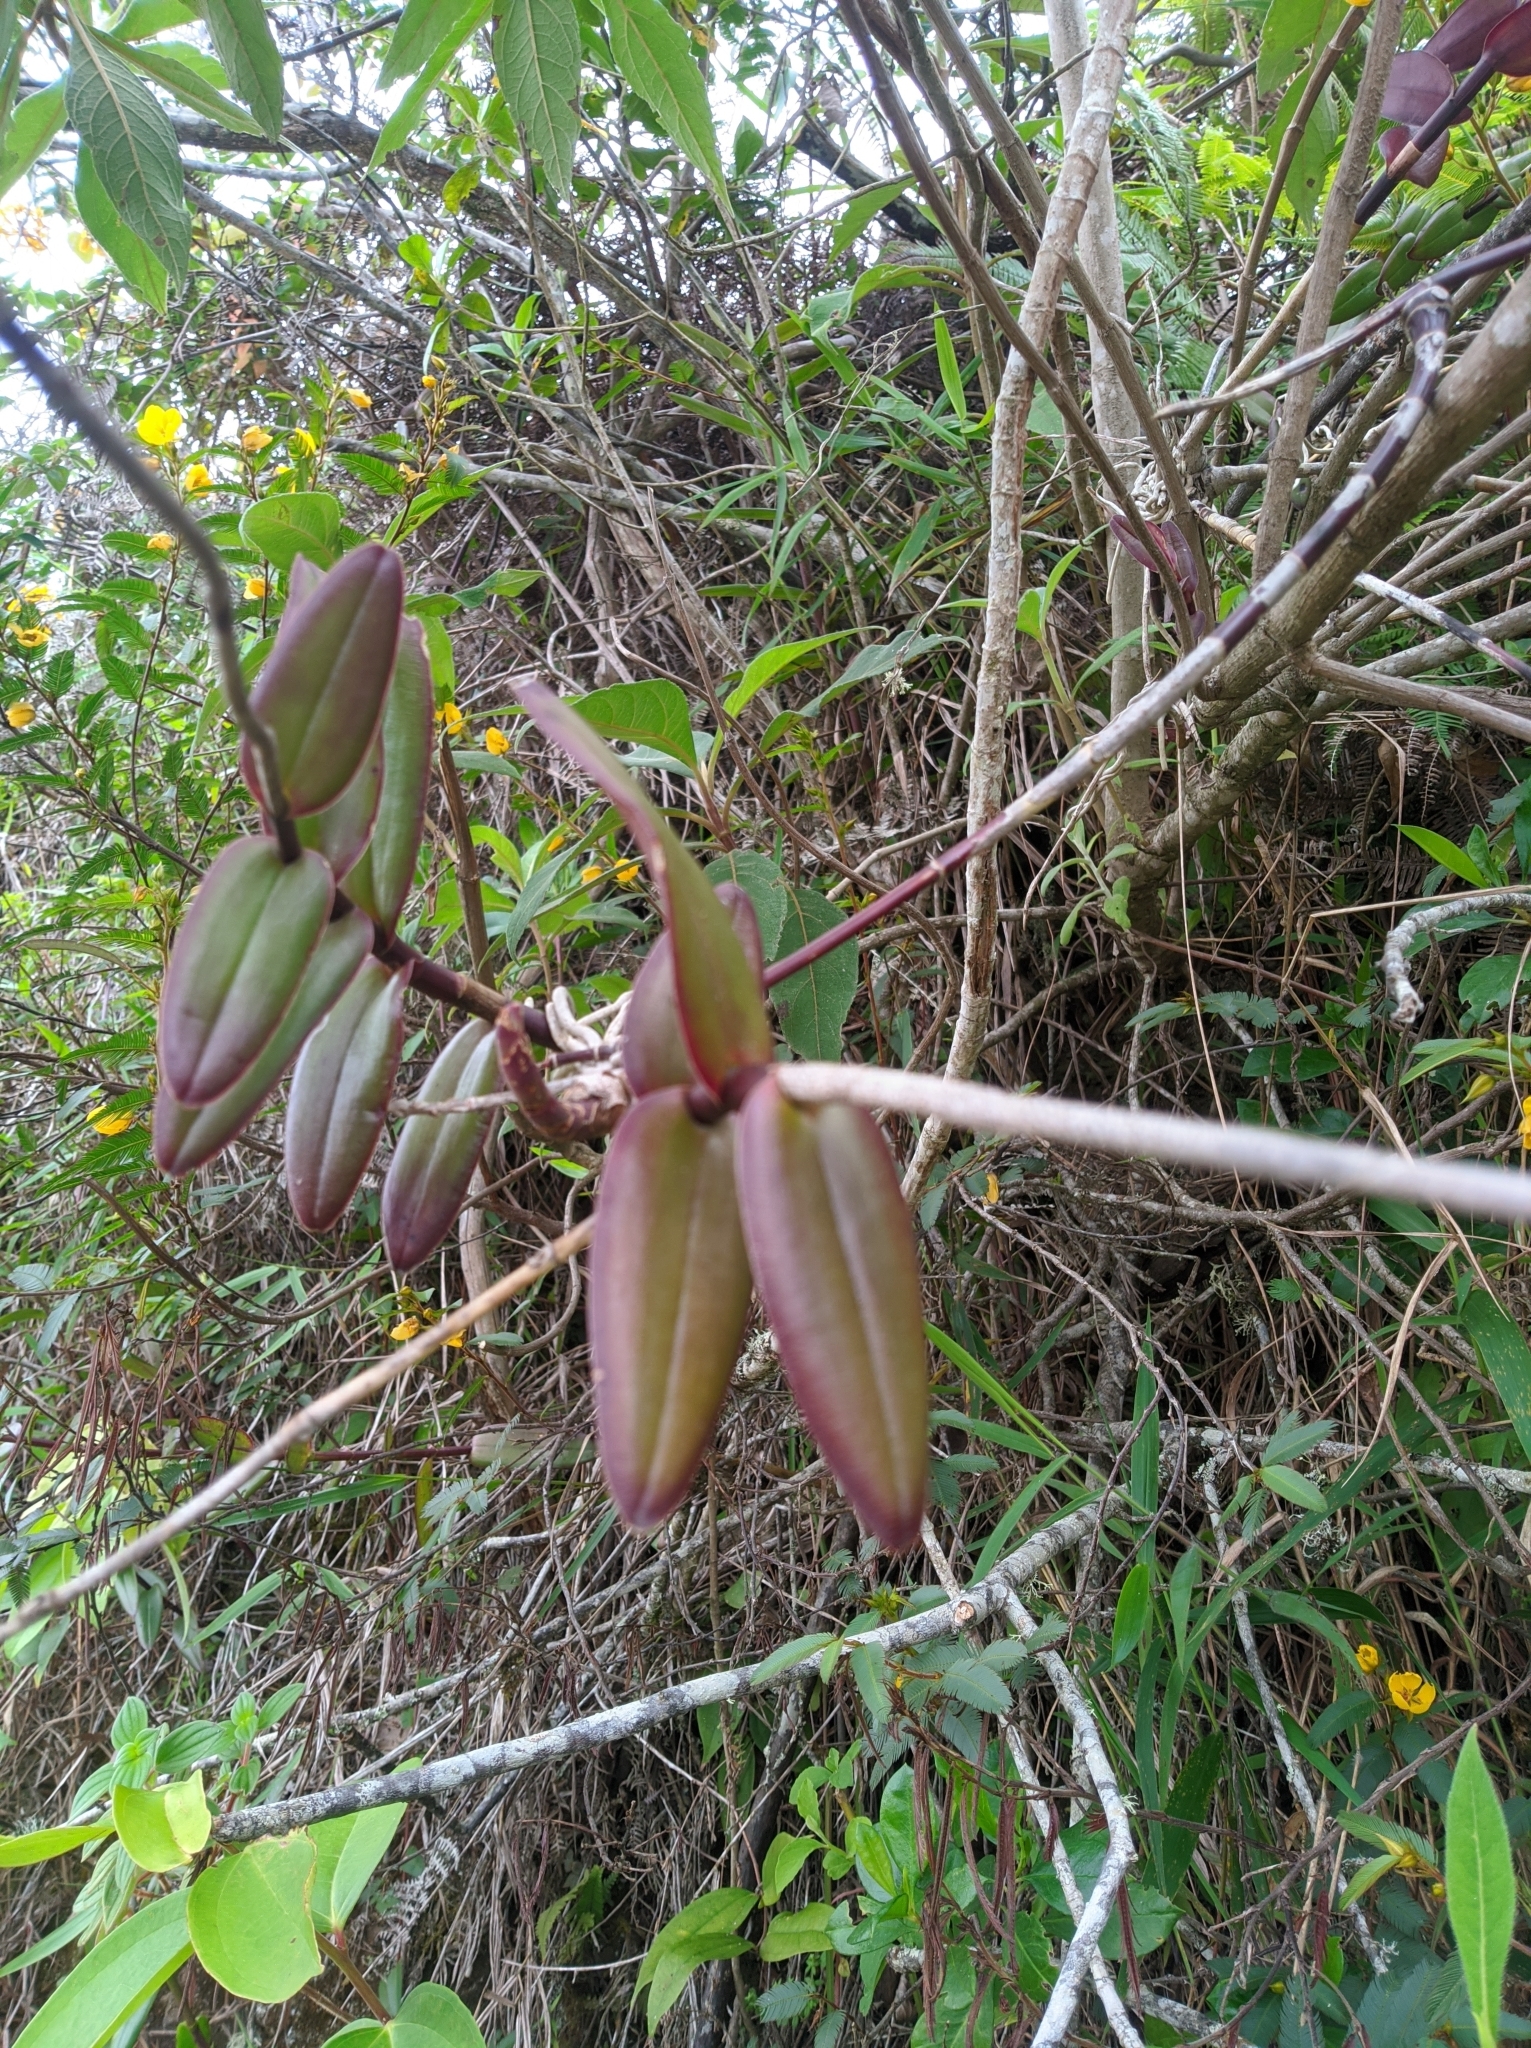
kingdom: Plantae
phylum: Tracheophyta
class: Liliopsida
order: Asparagales
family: Orchidaceae
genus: Epidendrum
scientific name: Epidendrum melinanthum
